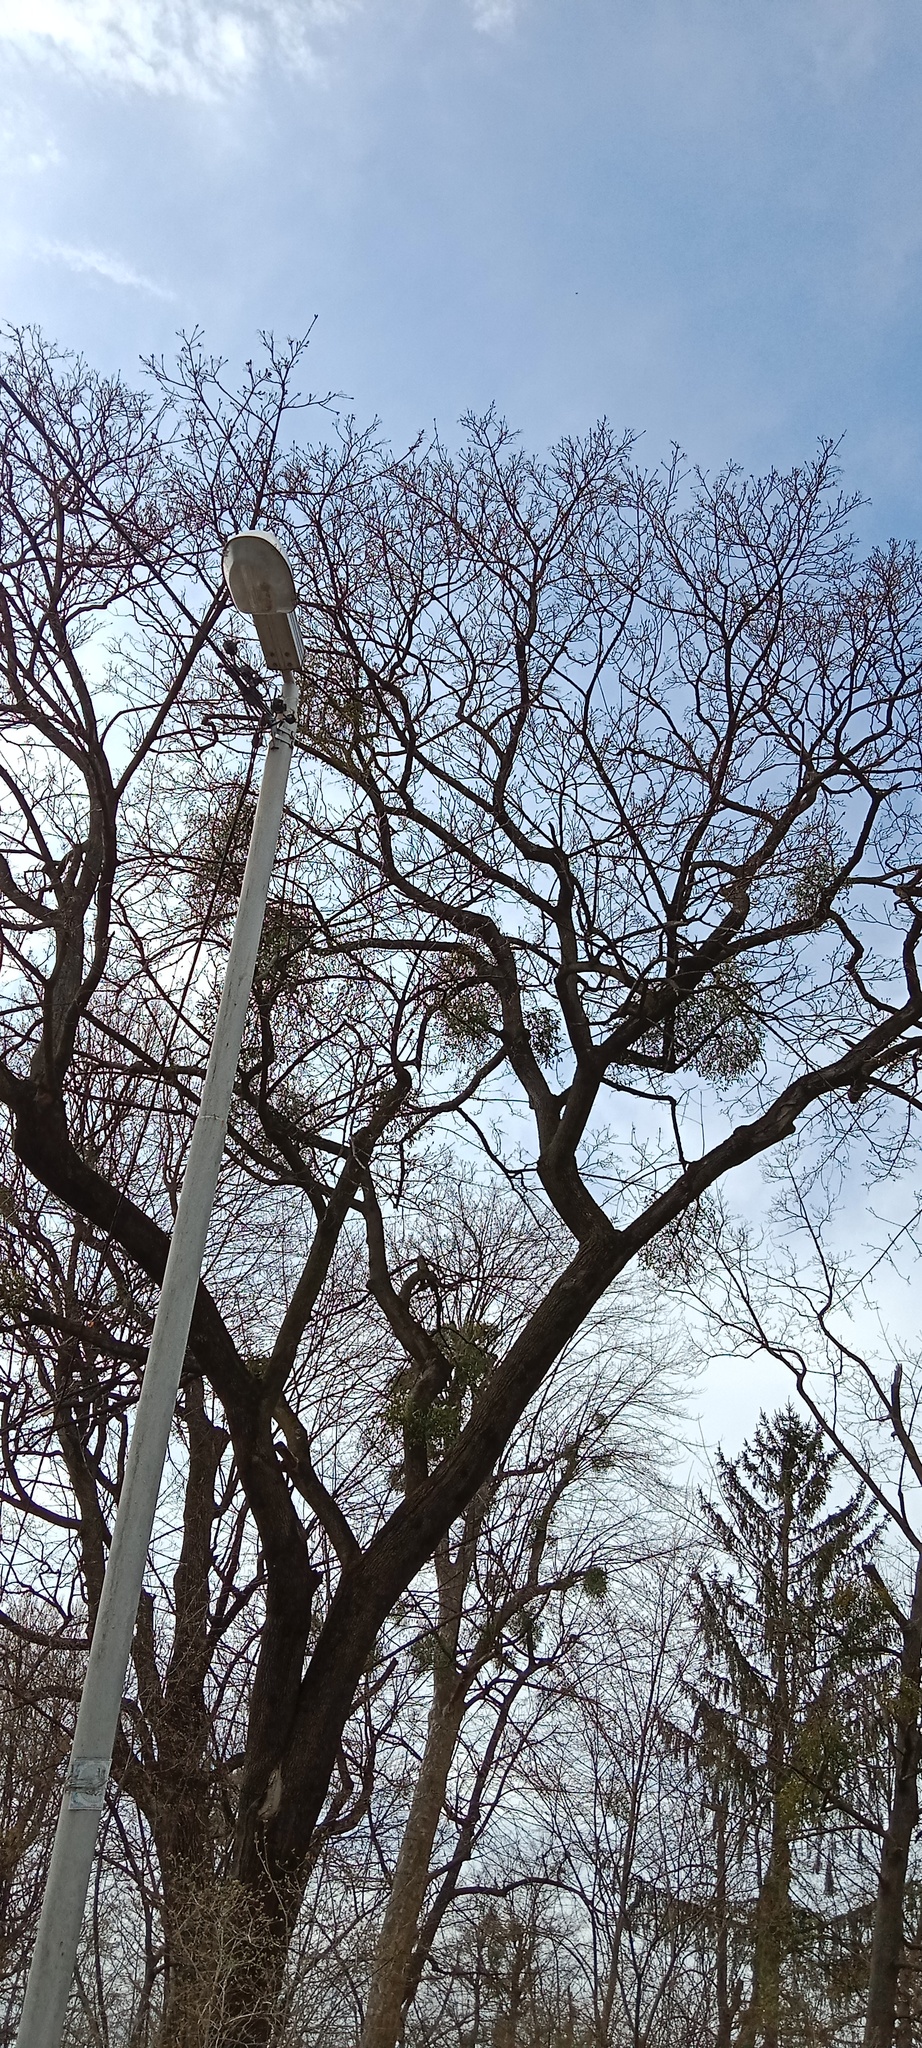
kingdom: Plantae
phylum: Tracheophyta
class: Magnoliopsida
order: Santalales
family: Viscaceae
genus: Viscum
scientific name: Viscum album
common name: Mistletoe
